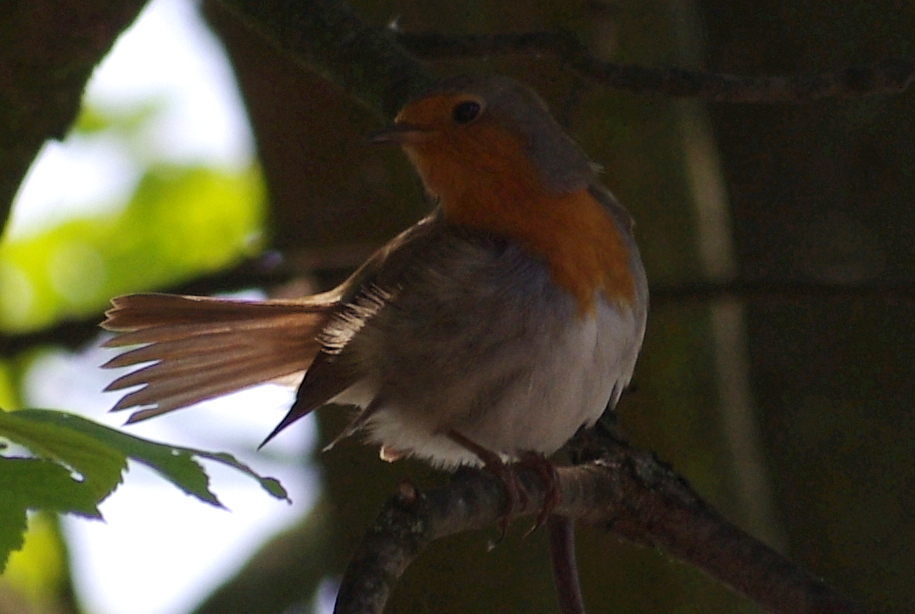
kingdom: Animalia
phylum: Chordata
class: Aves
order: Passeriformes
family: Muscicapidae
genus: Erithacus
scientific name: Erithacus rubecula
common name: European robin
